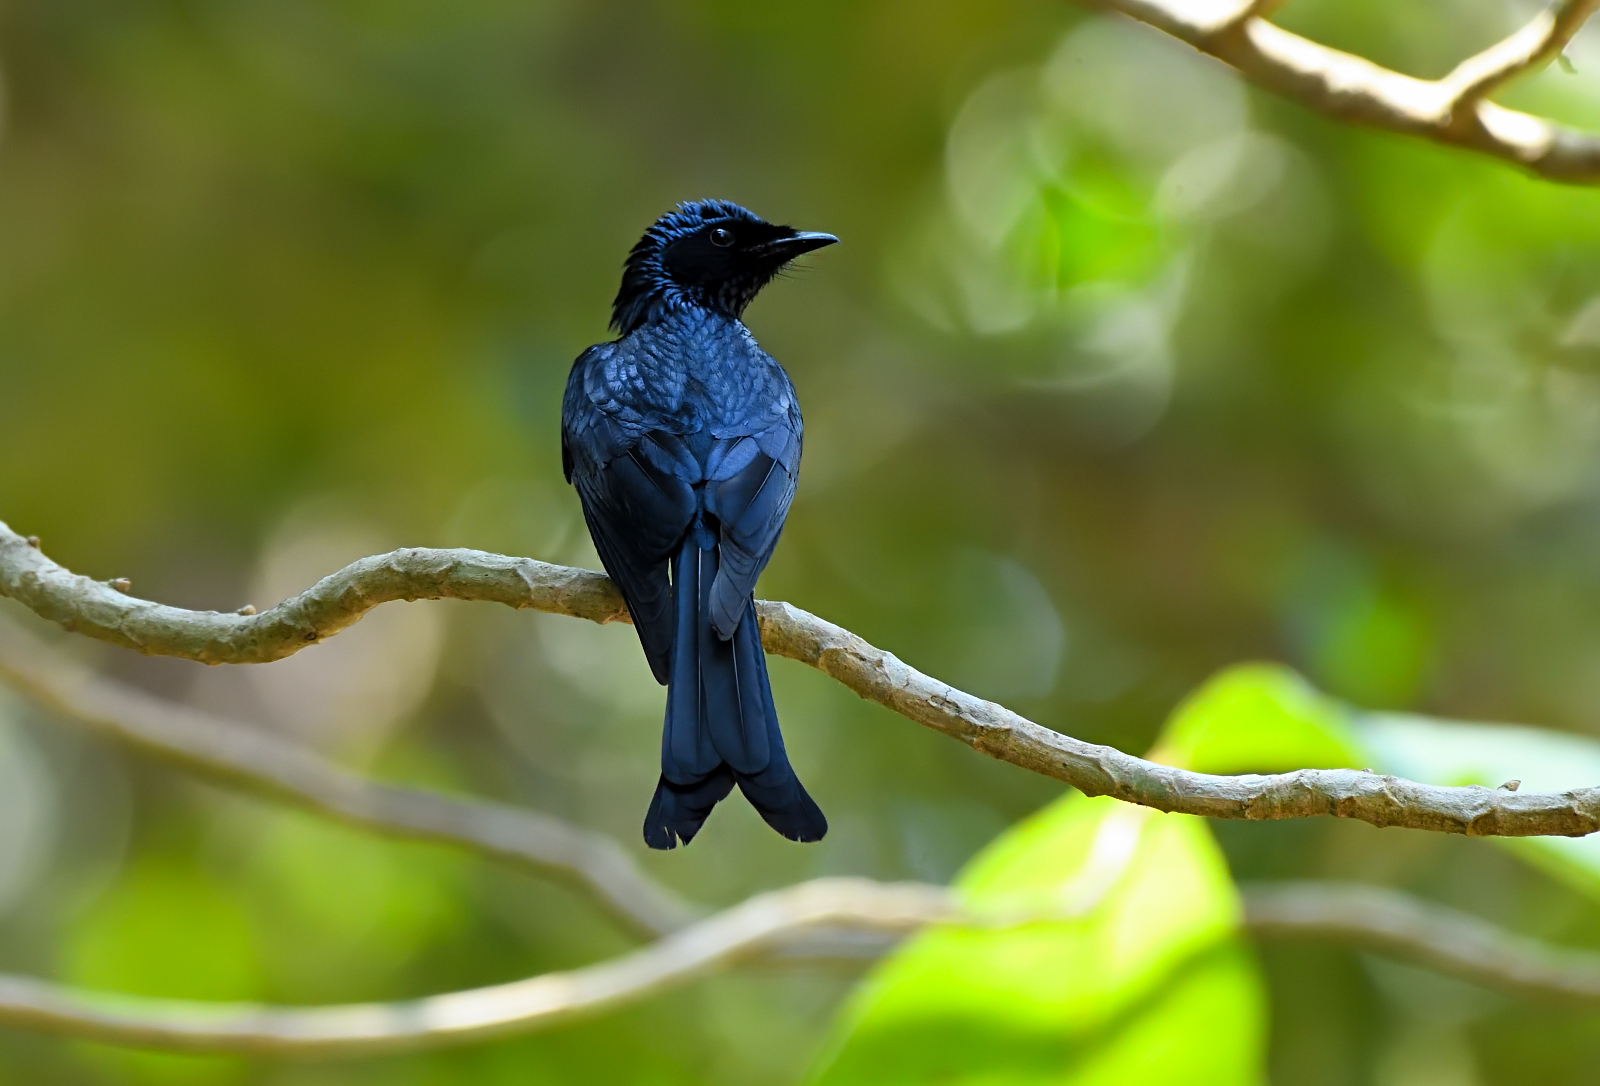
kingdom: Animalia
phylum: Chordata
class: Aves
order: Passeriformes
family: Dicruridae
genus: Dicrurus
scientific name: Dicrurus aeneus
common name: Bronzed drongo
